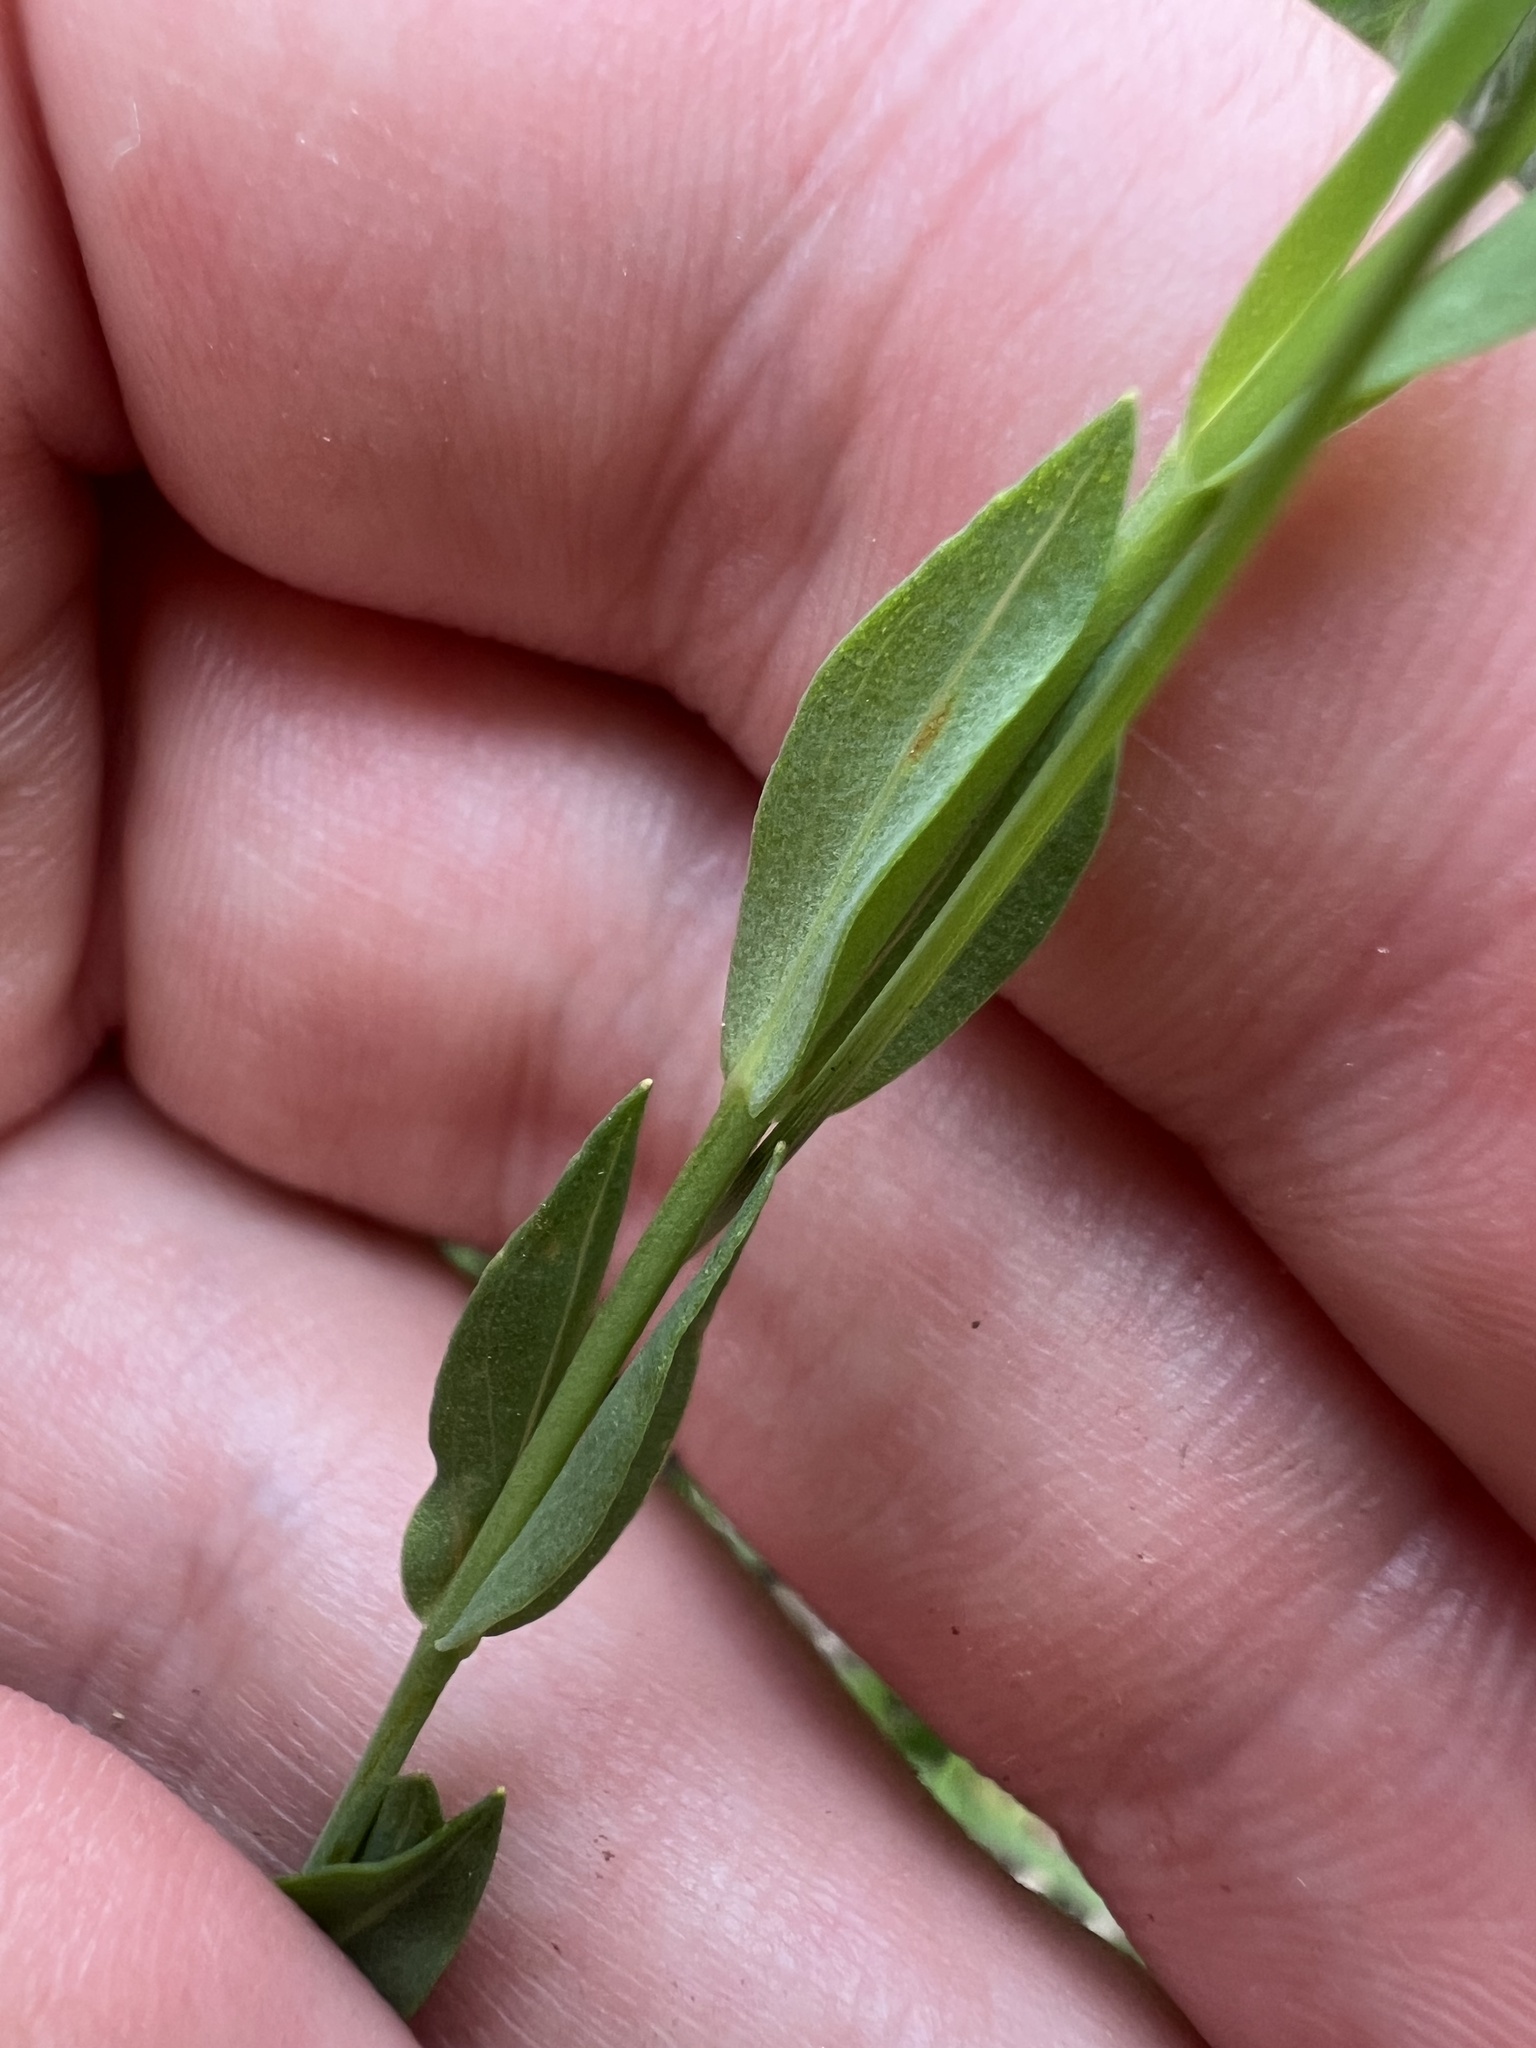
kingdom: Plantae
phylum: Tracheophyta
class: Magnoliopsida
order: Malpighiales
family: Hypericaceae
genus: Hypericum
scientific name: Hypericum denticulatum
